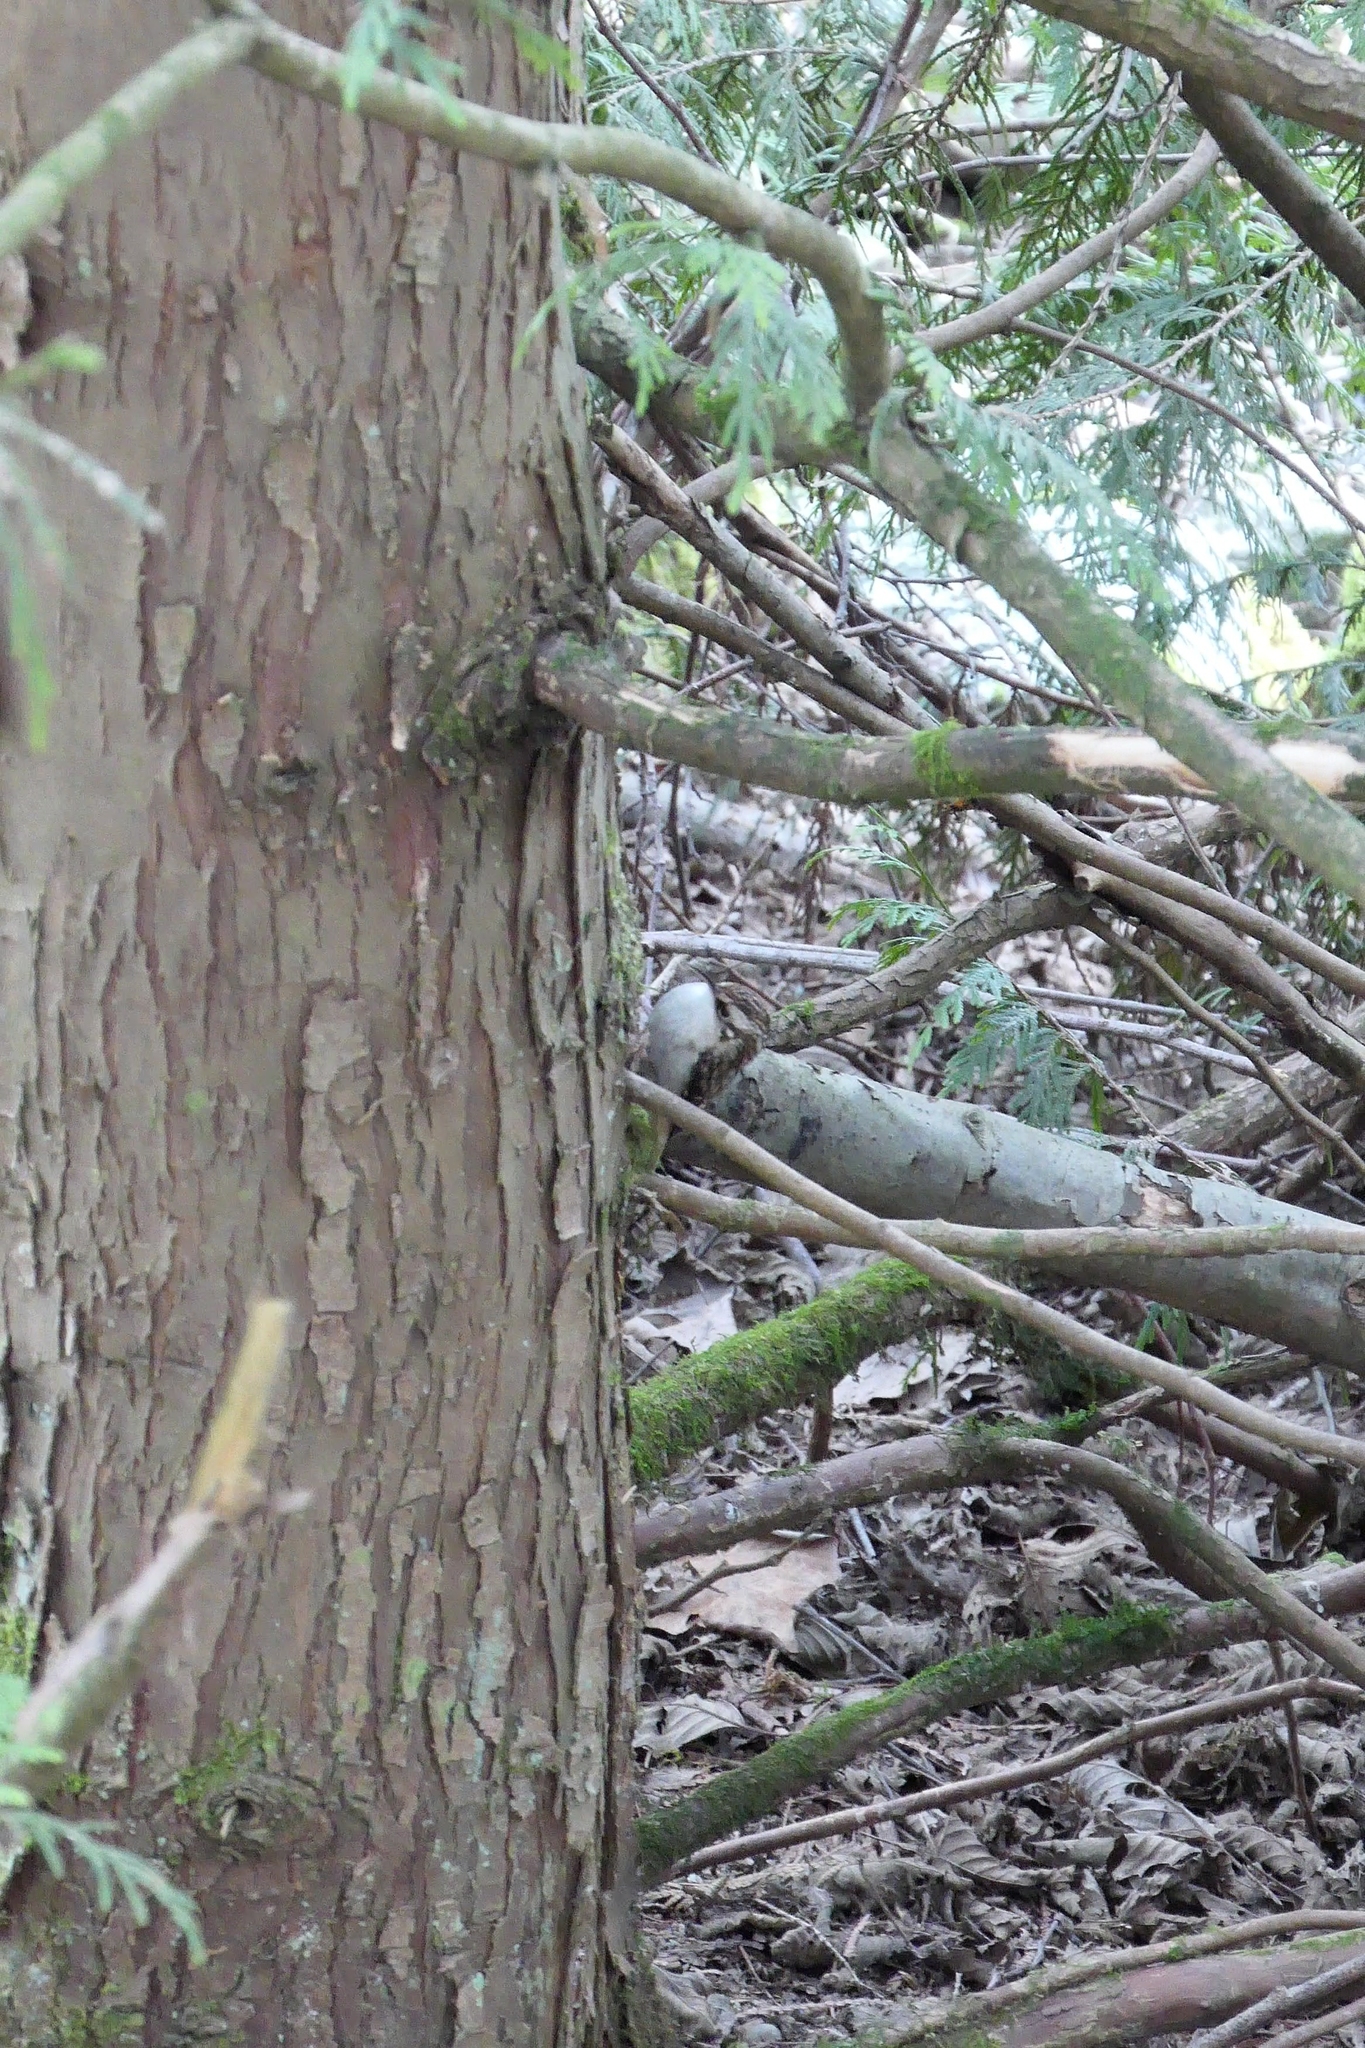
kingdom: Animalia
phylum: Chordata
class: Aves
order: Passeriformes
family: Certhiidae
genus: Certhia
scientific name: Certhia americana
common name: Brown creeper
